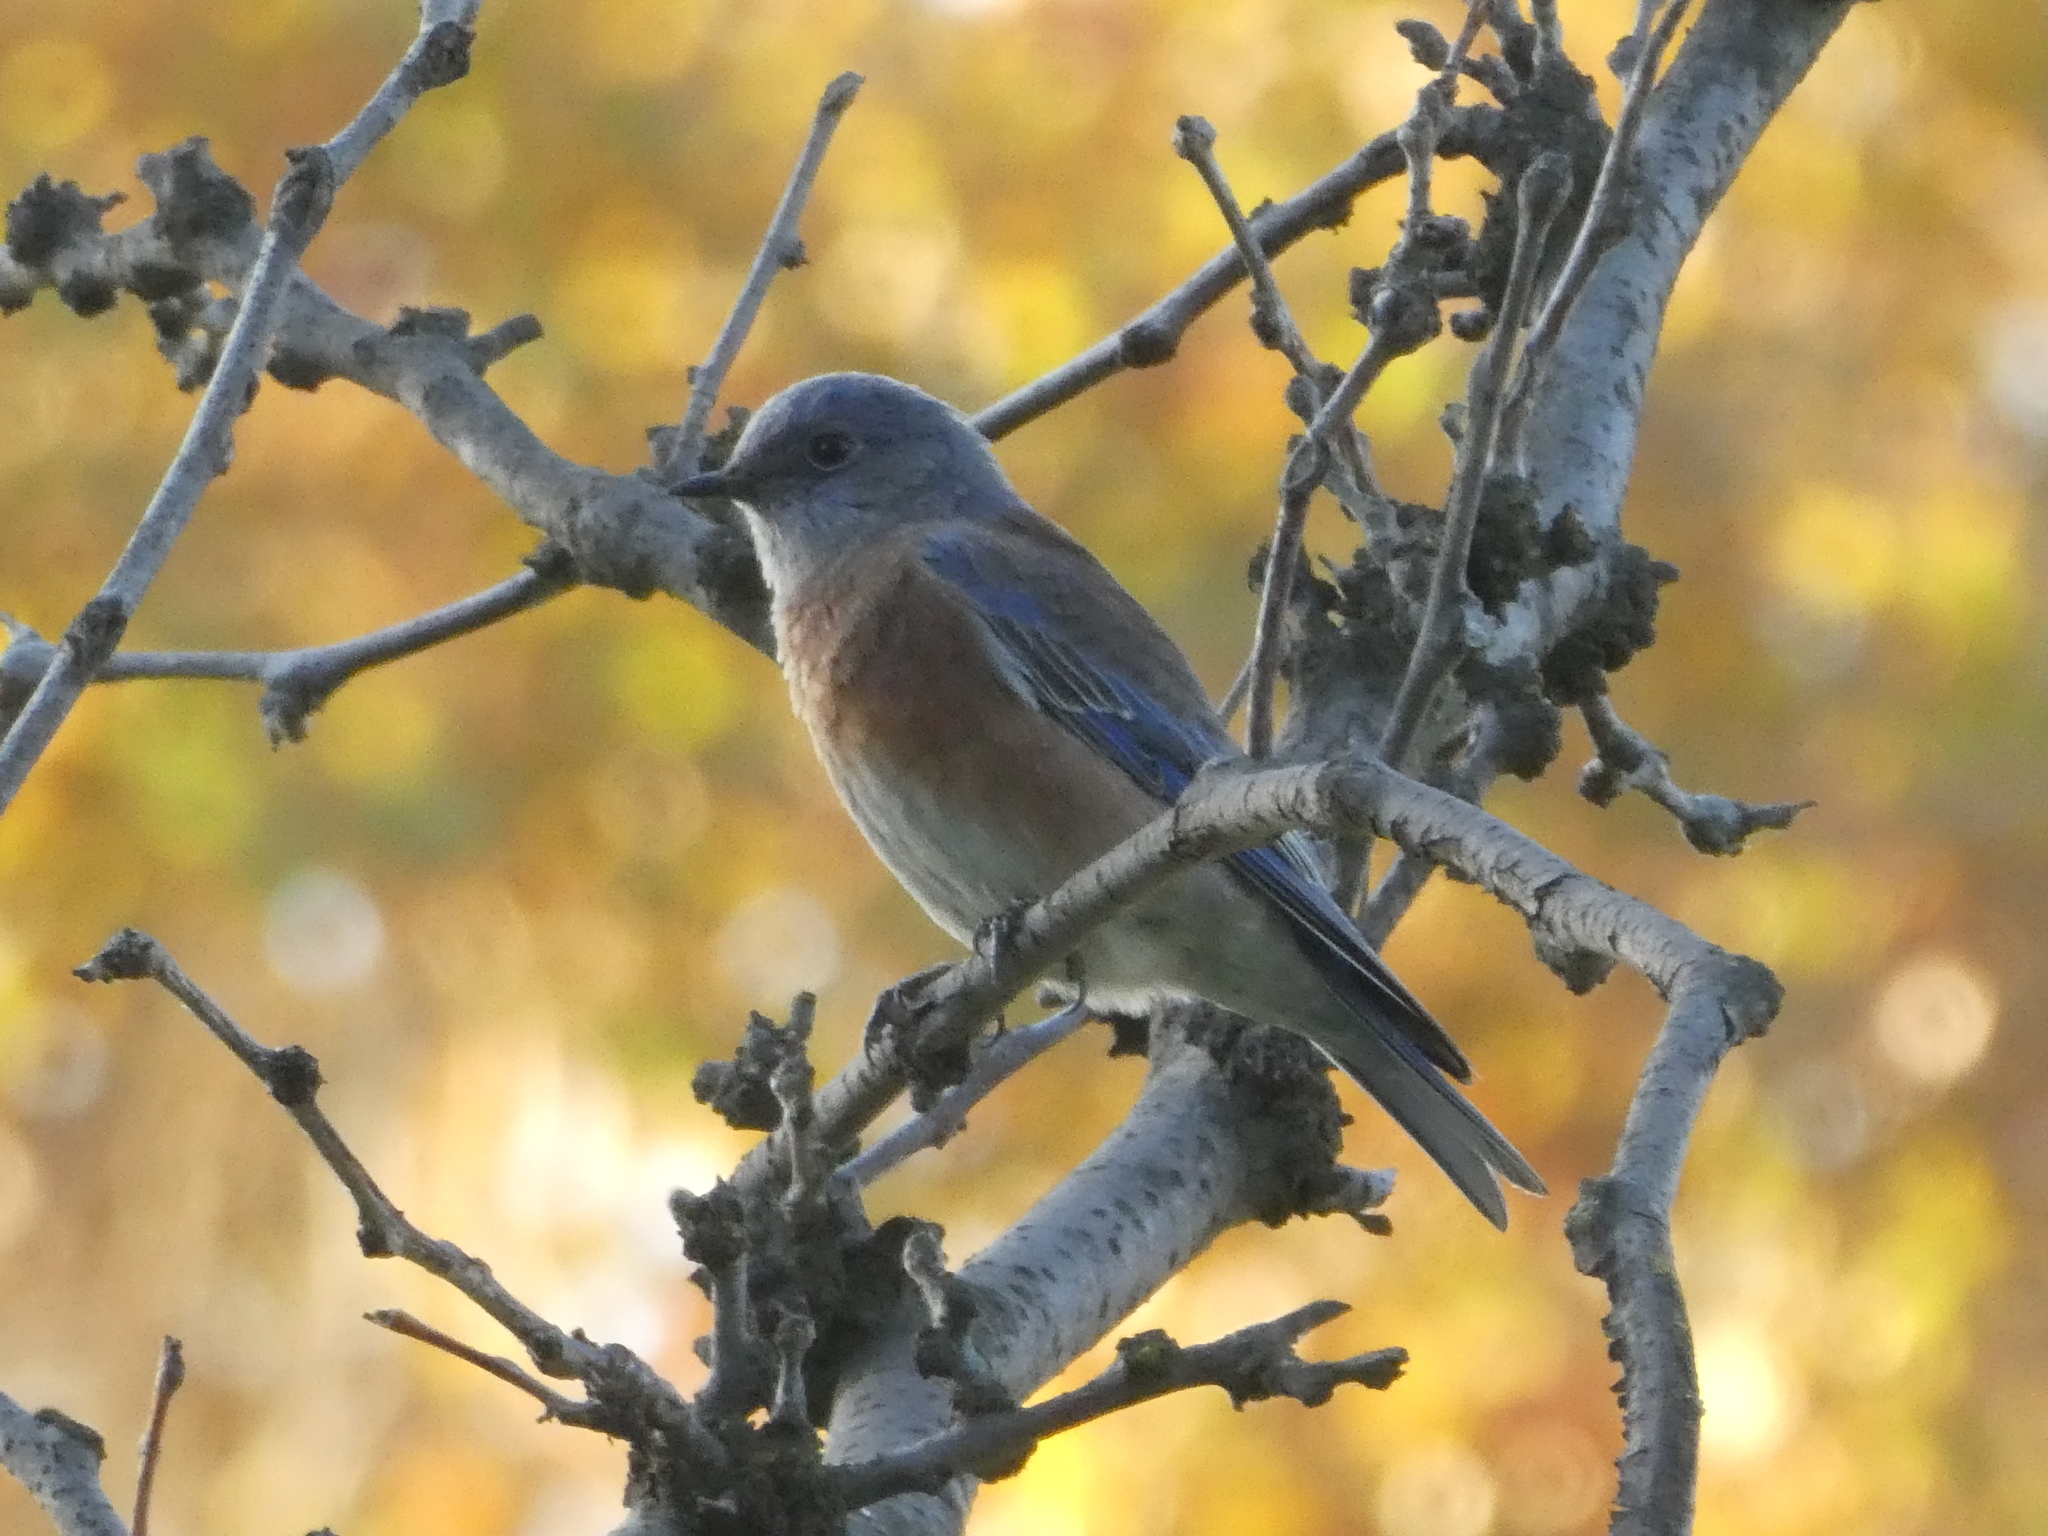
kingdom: Animalia
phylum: Chordata
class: Aves
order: Passeriformes
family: Turdidae
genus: Sialia
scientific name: Sialia mexicana
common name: Western bluebird
